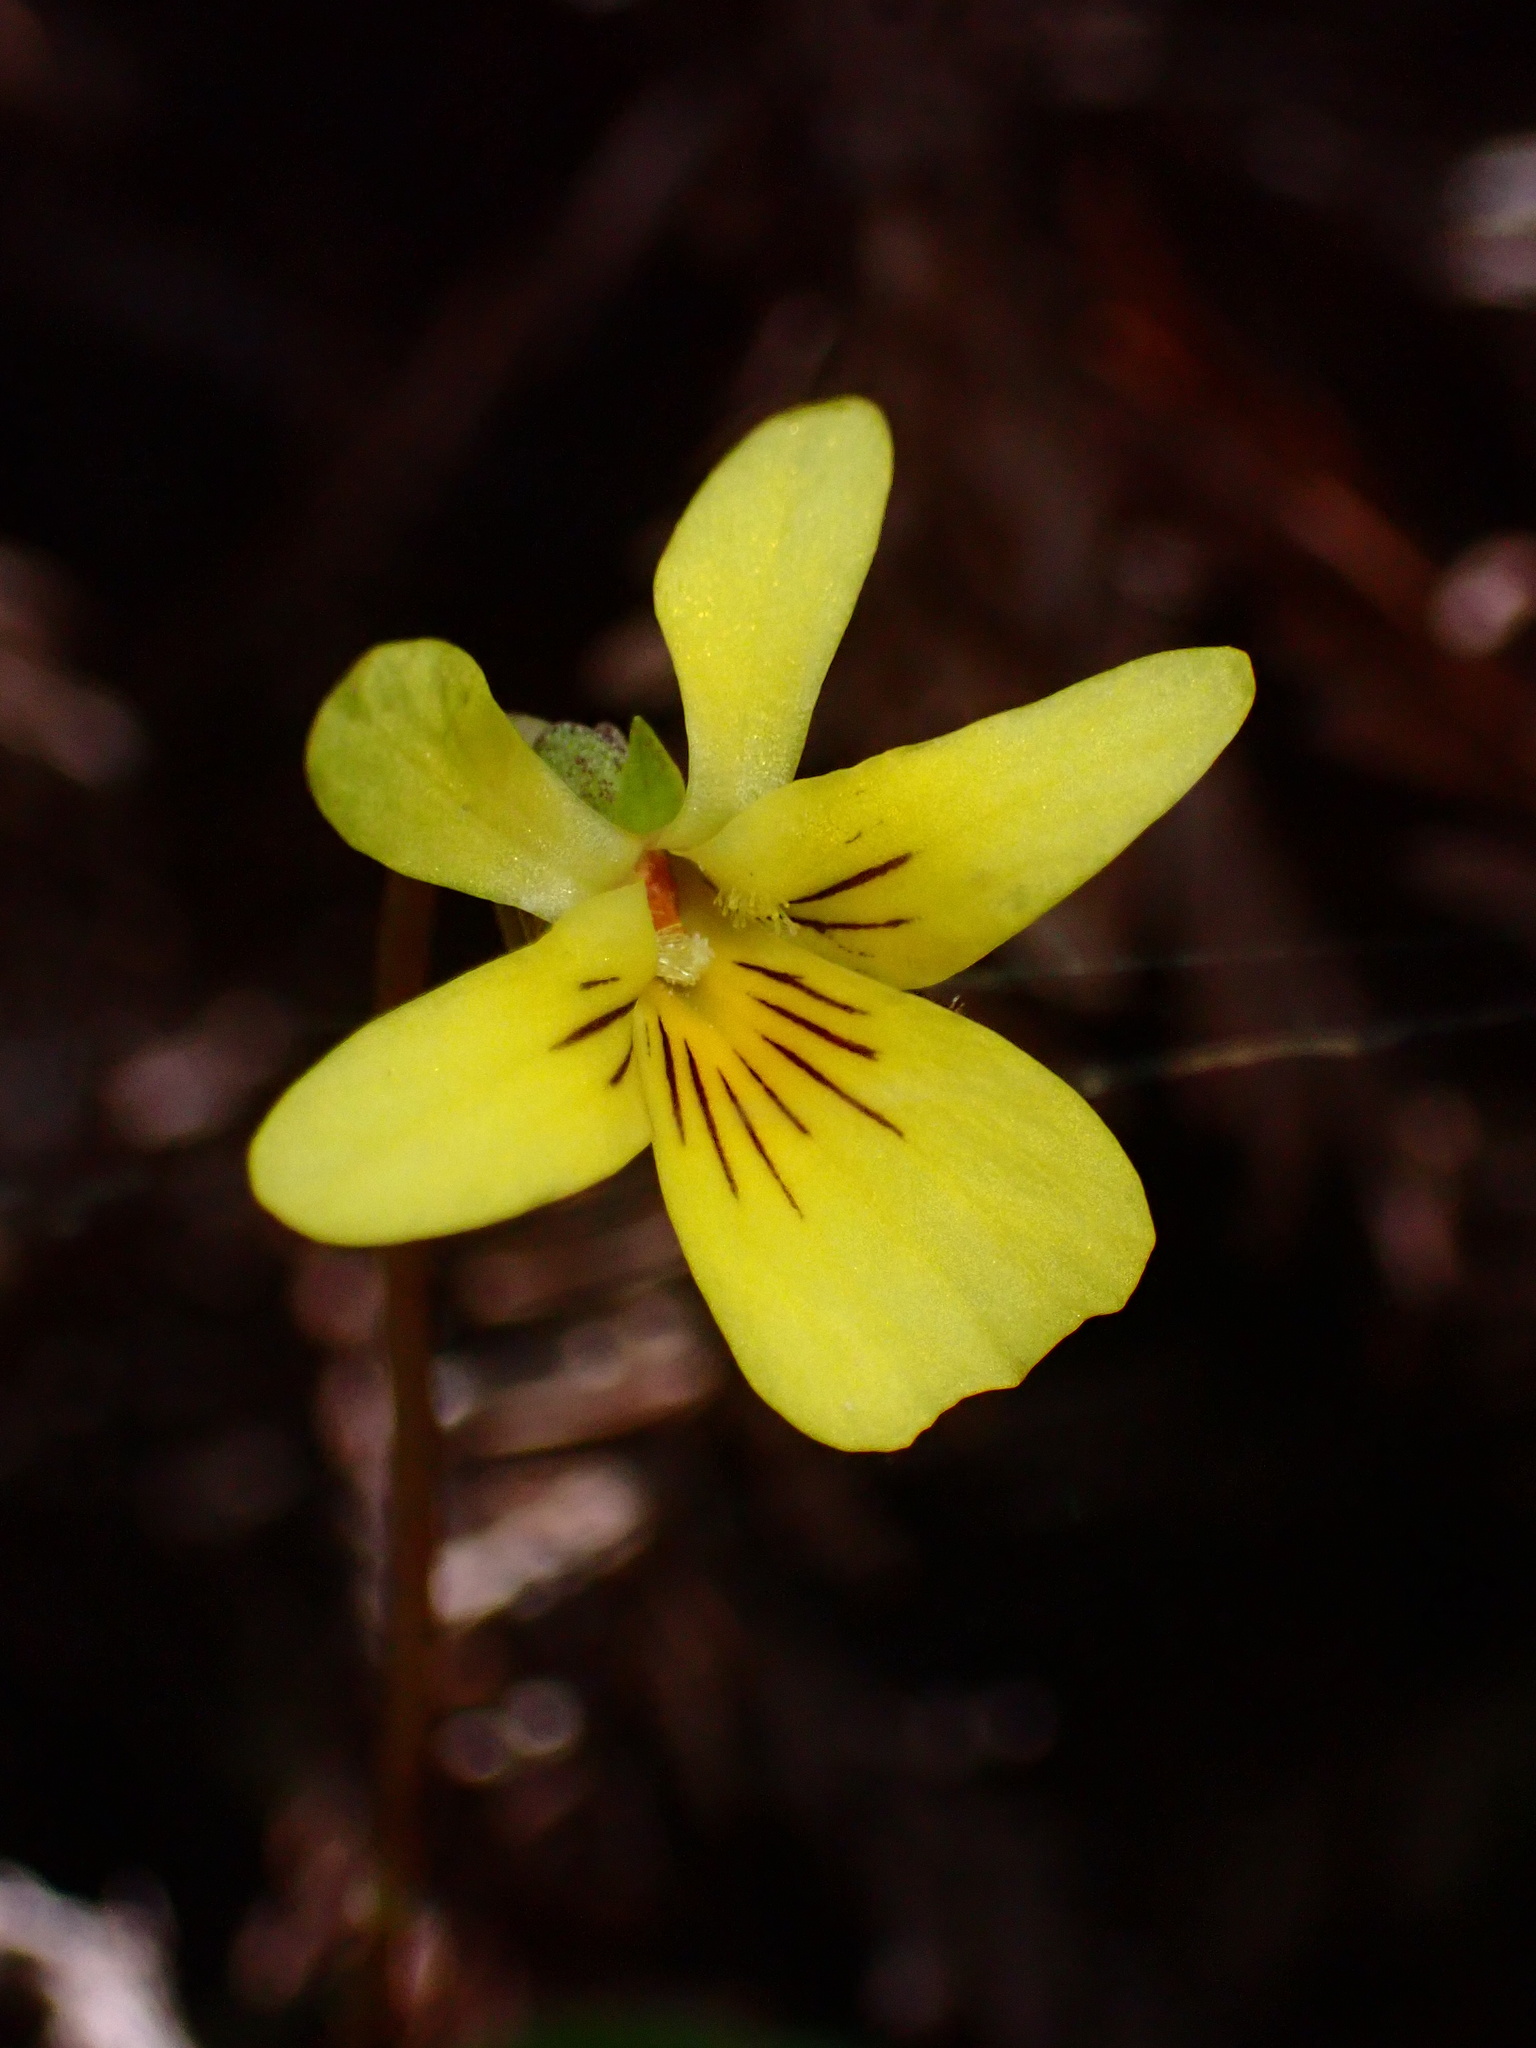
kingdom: Plantae
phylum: Tracheophyta
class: Magnoliopsida
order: Malpighiales
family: Violaceae
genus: Viola
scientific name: Viola sempervirens
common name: Evergreen violet
